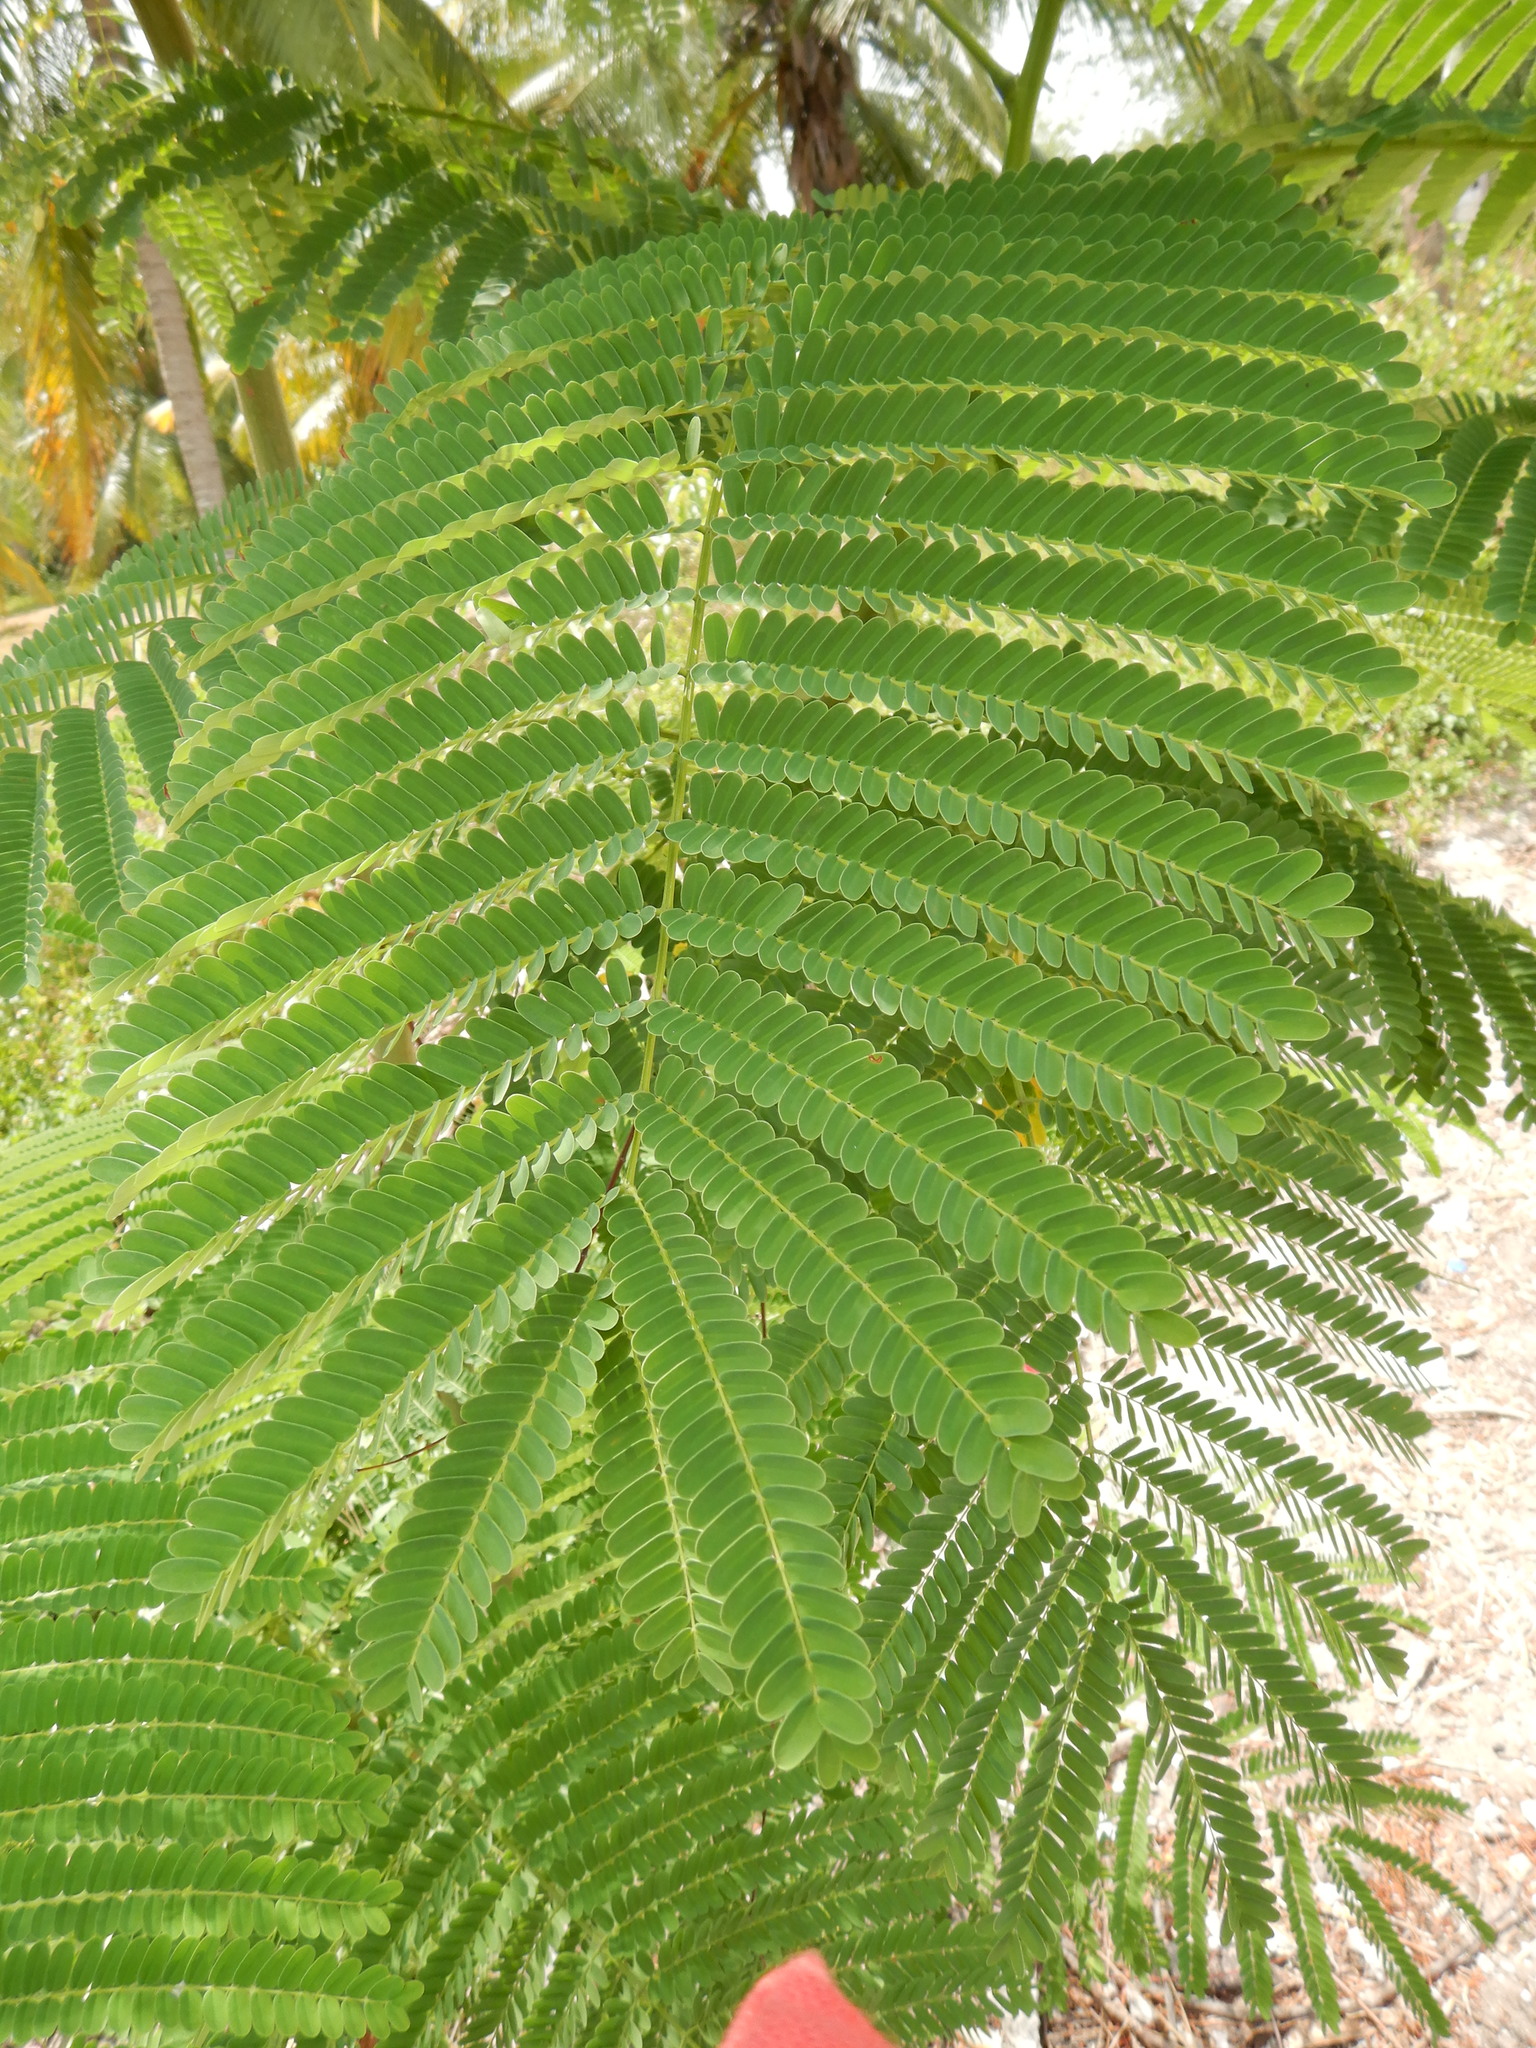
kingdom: Plantae
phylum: Tracheophyta
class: Magnoliopsida
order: Fabales
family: Fabaceae
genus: Delonix
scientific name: Delonix regia
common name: Royal poinciana
